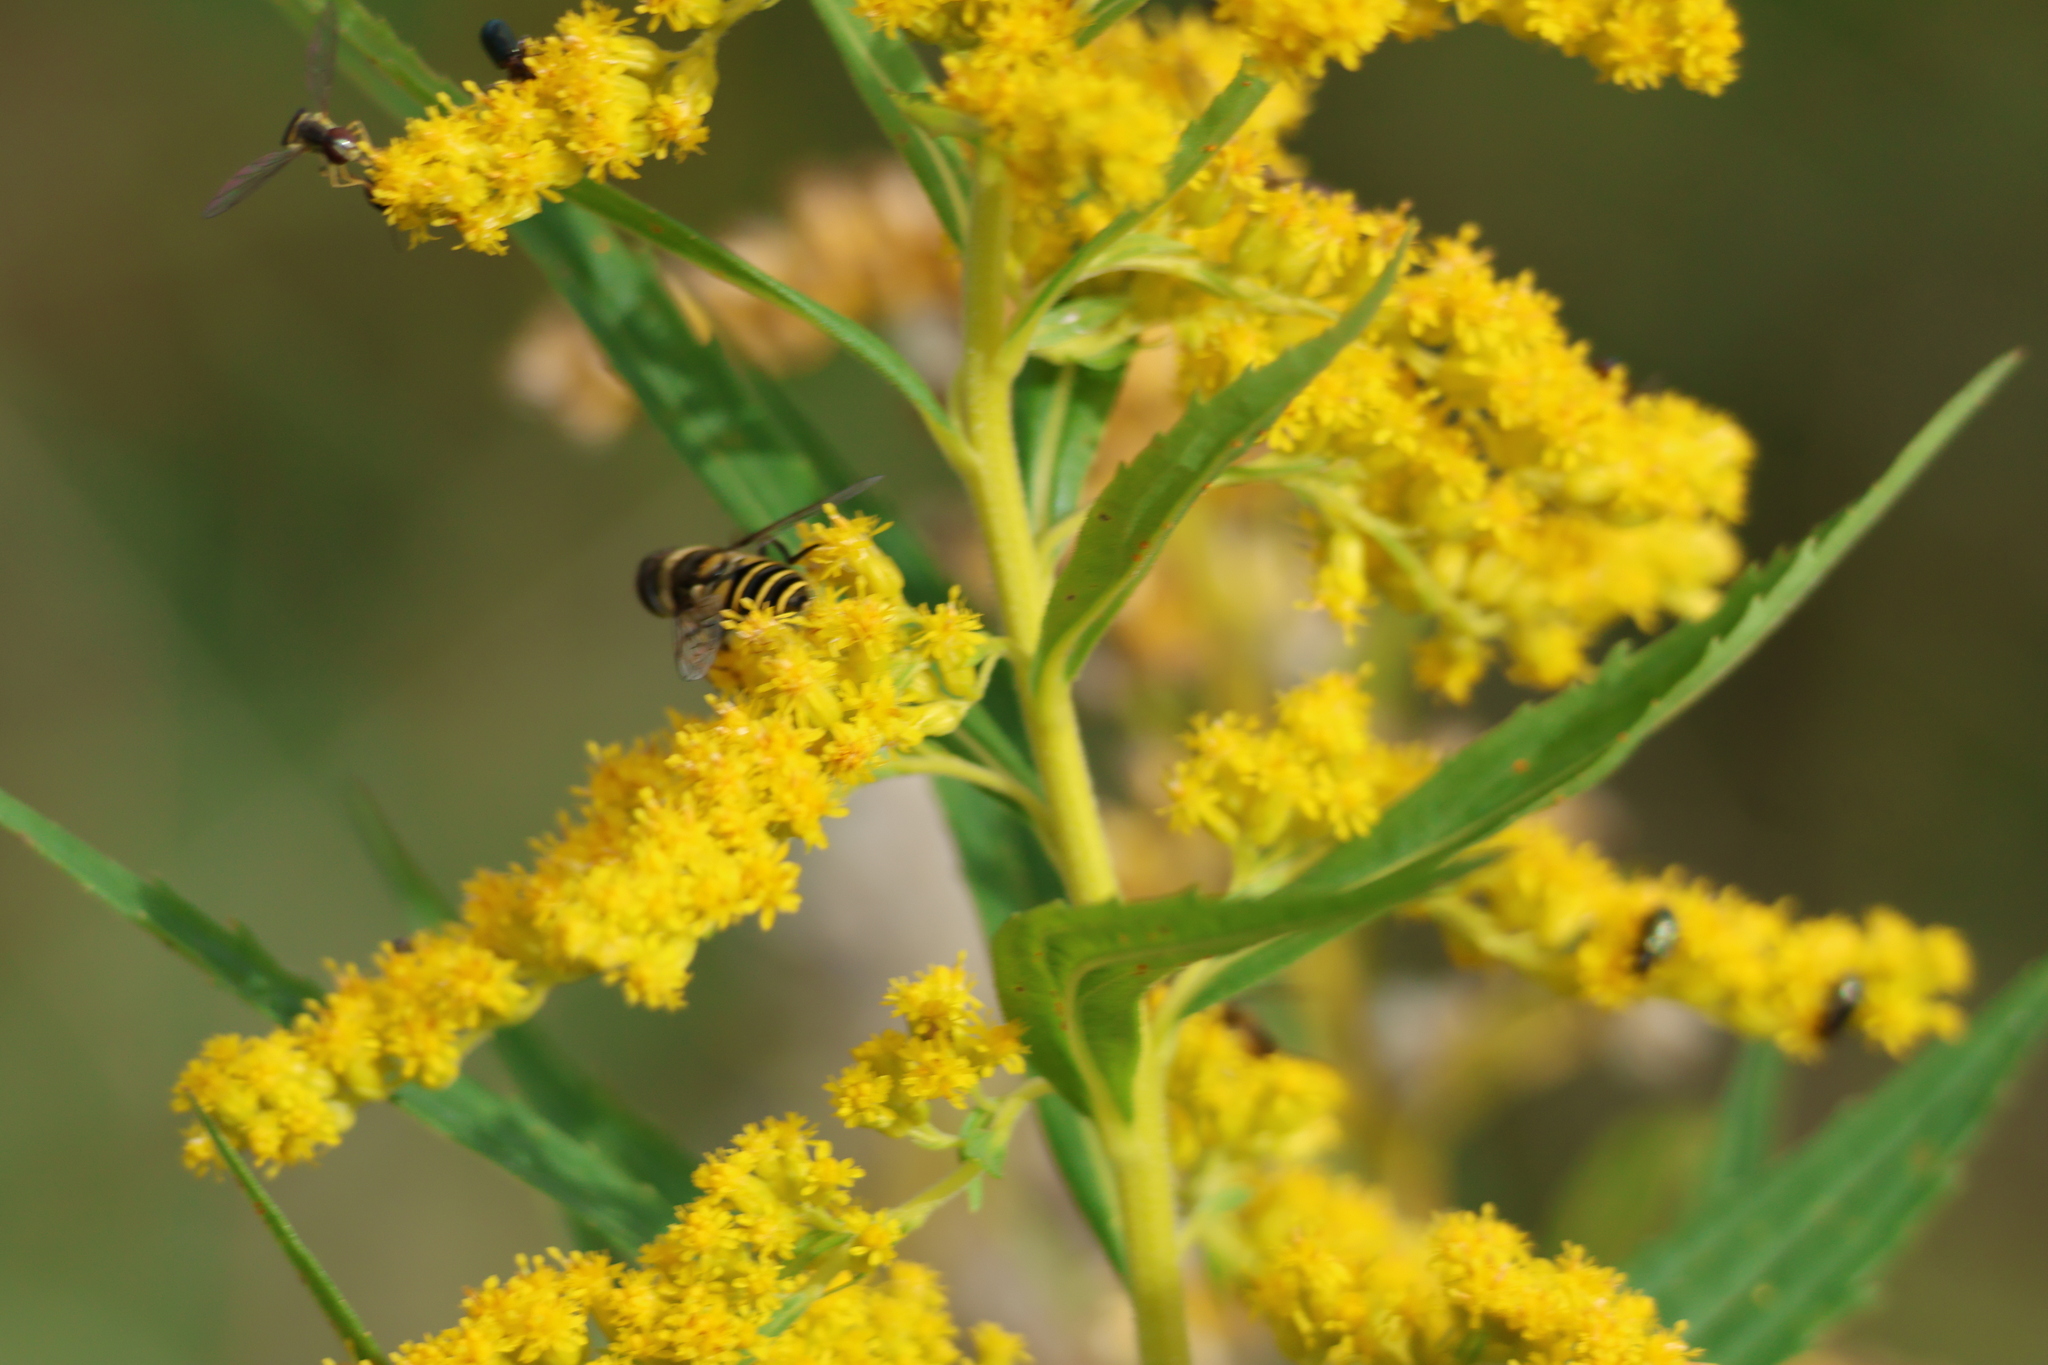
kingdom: Animalia
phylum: Arthropoda
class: Insecta
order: Diptera
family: Syrphidae
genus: Eristalis
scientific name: Eristalis transversa
